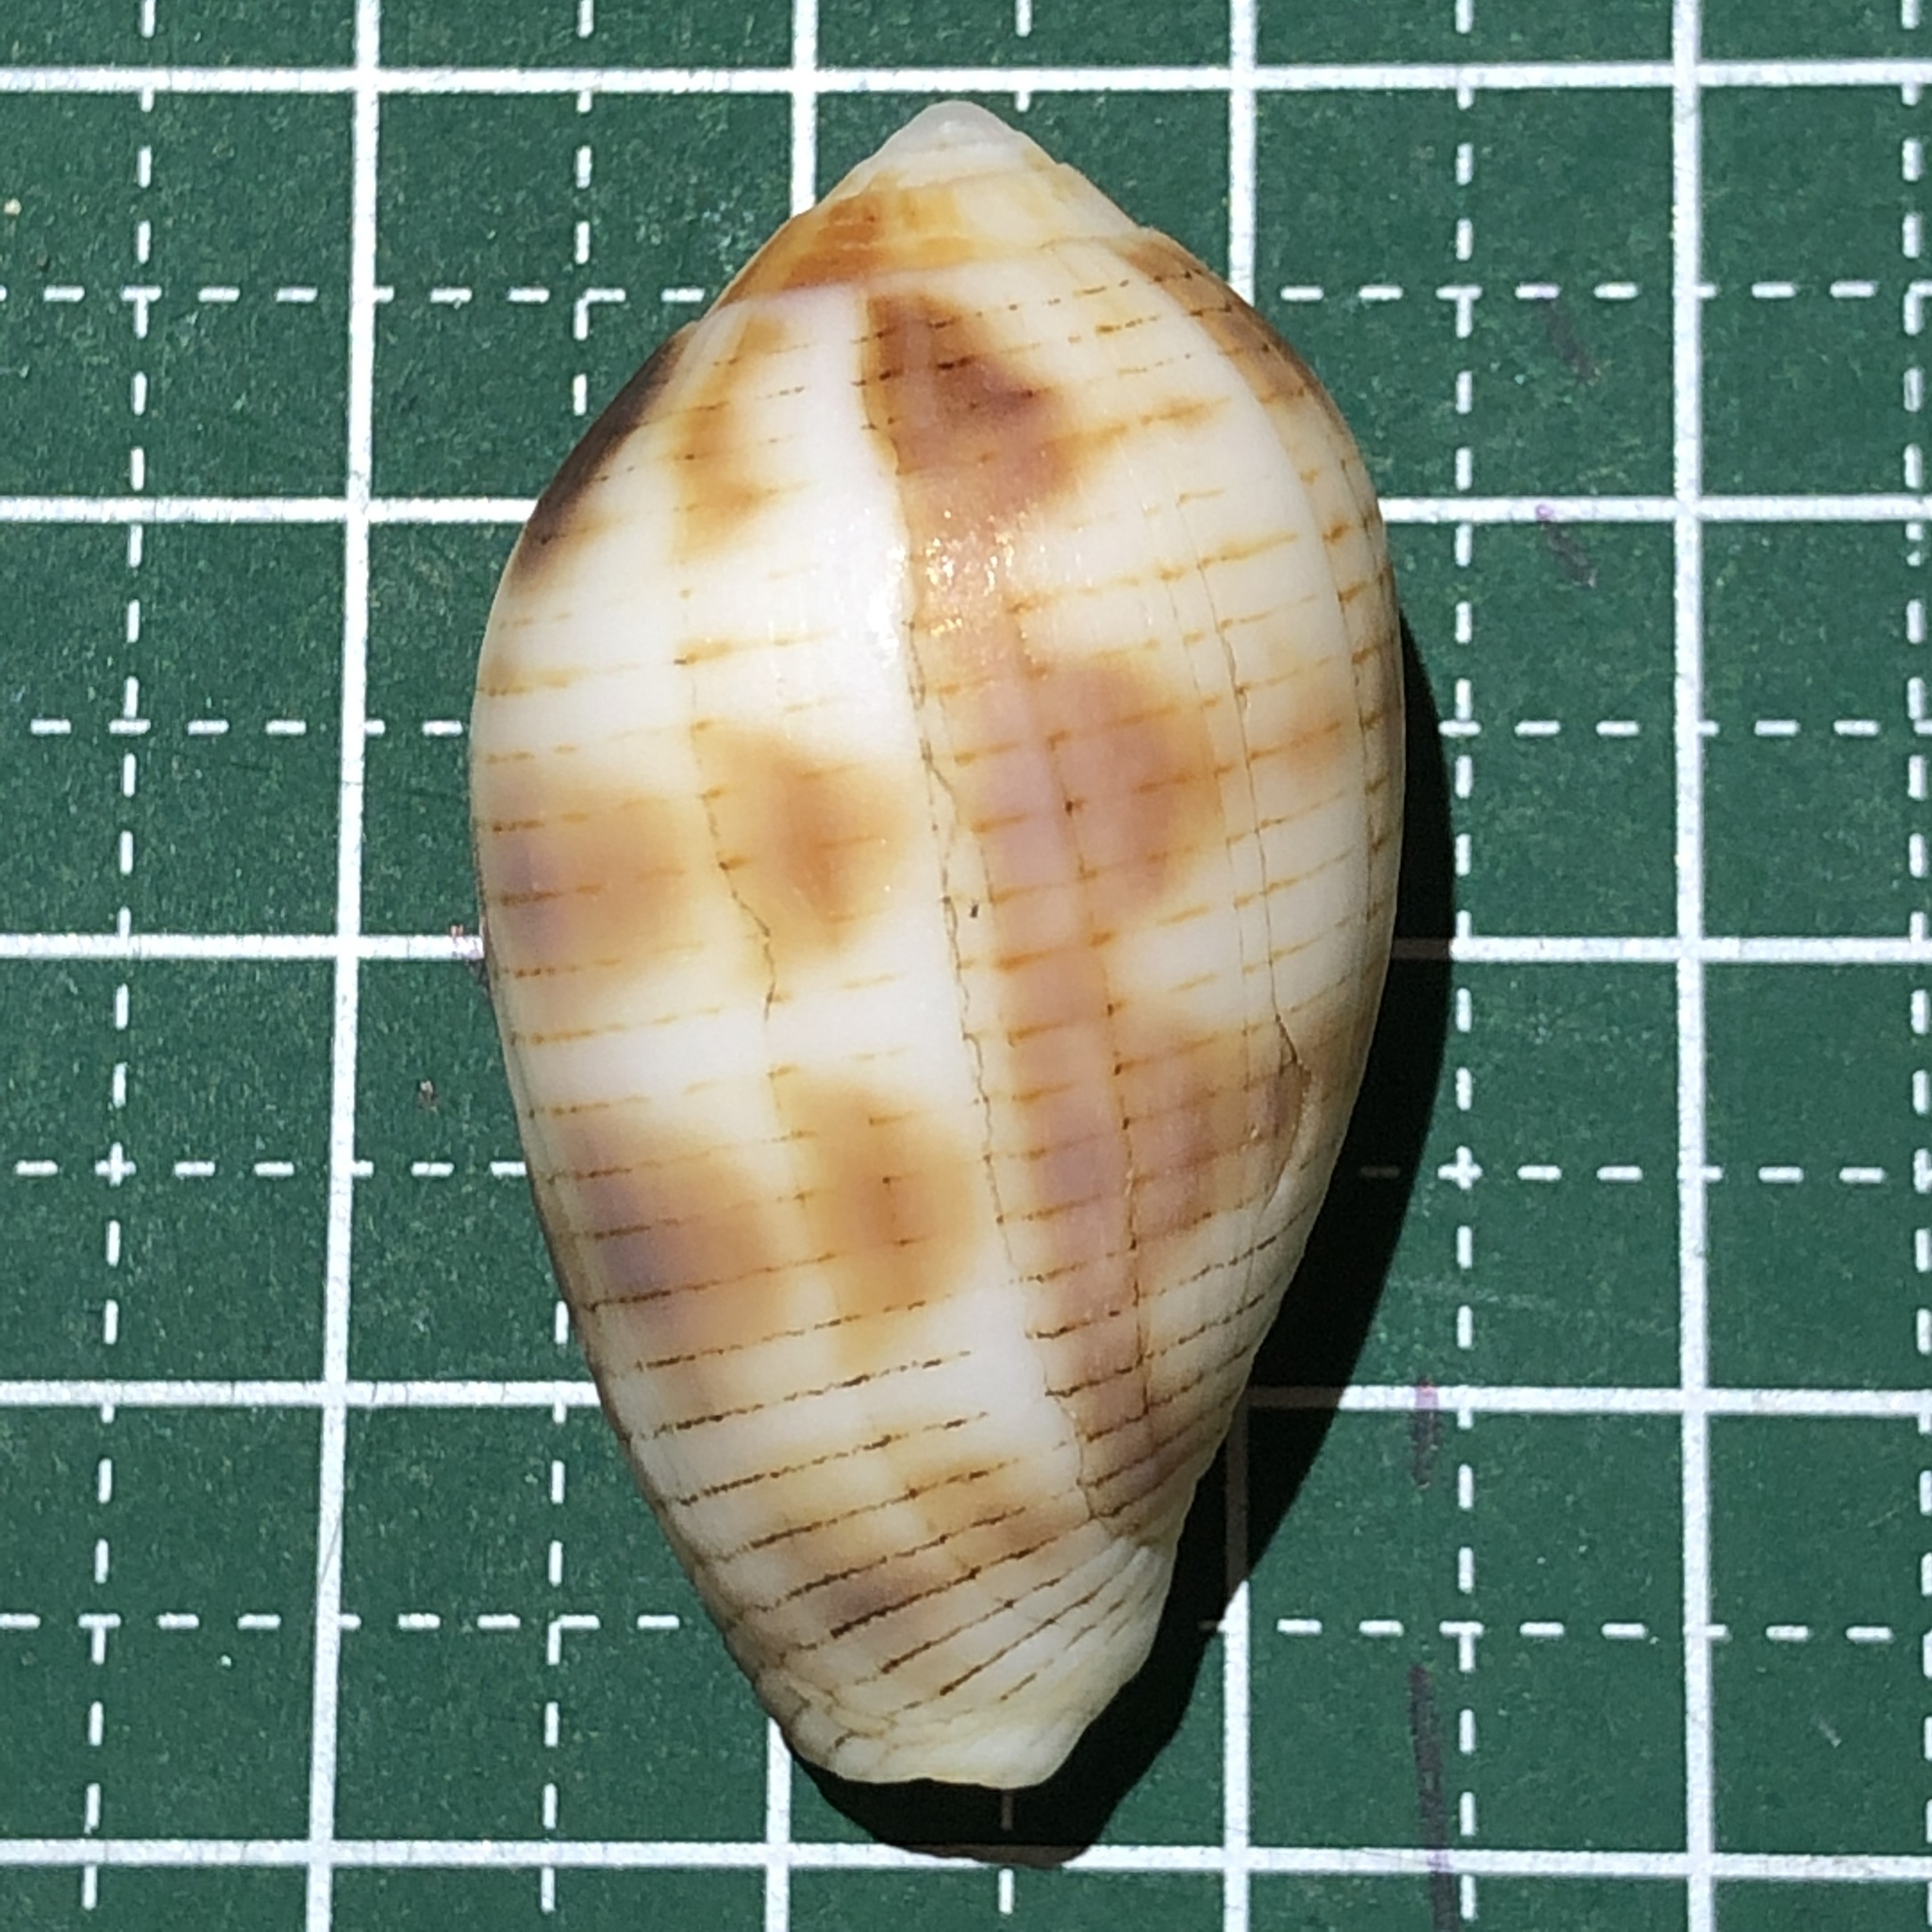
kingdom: Animalia
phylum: Mollusca
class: Gastropoda
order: Neogastropoda
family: Mitridae
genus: Pterygia
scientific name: Pterygia dactylus
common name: Finger miter
